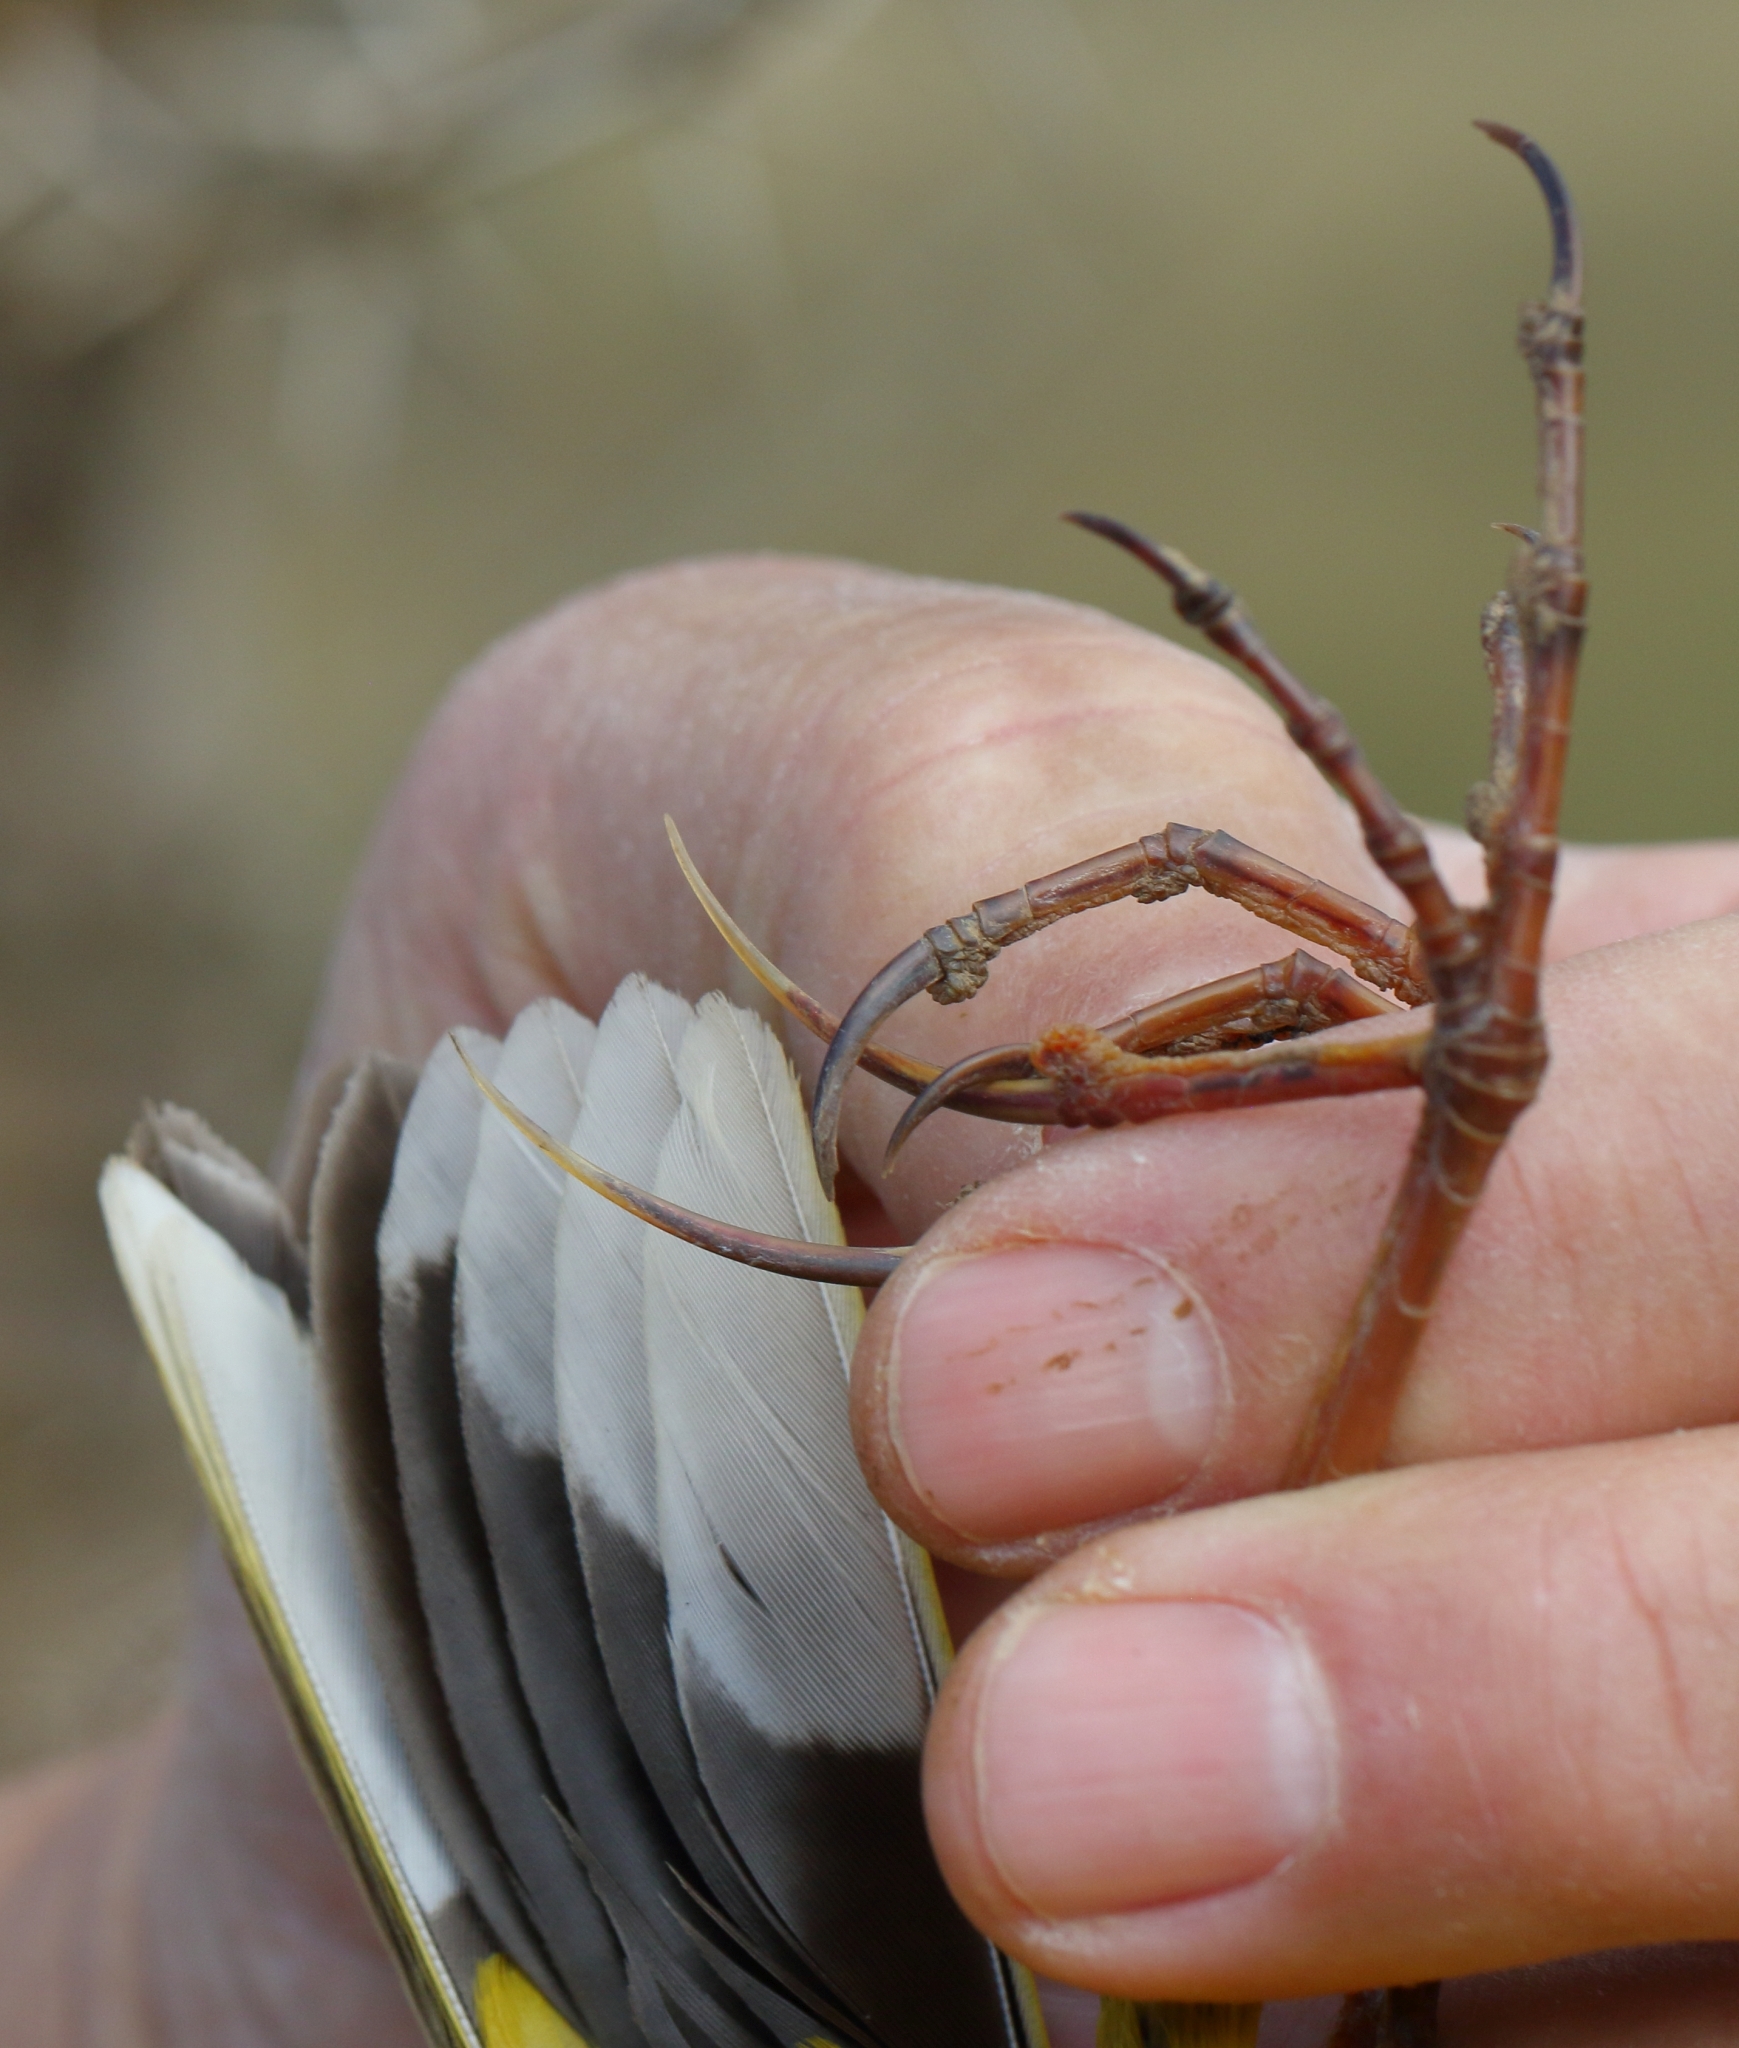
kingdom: Animalia
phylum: Chordata
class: Aves
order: Passeriformes
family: Motacillidae
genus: Macronyx
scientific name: Macronyx croceus
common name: Yellow-throated longclaw
